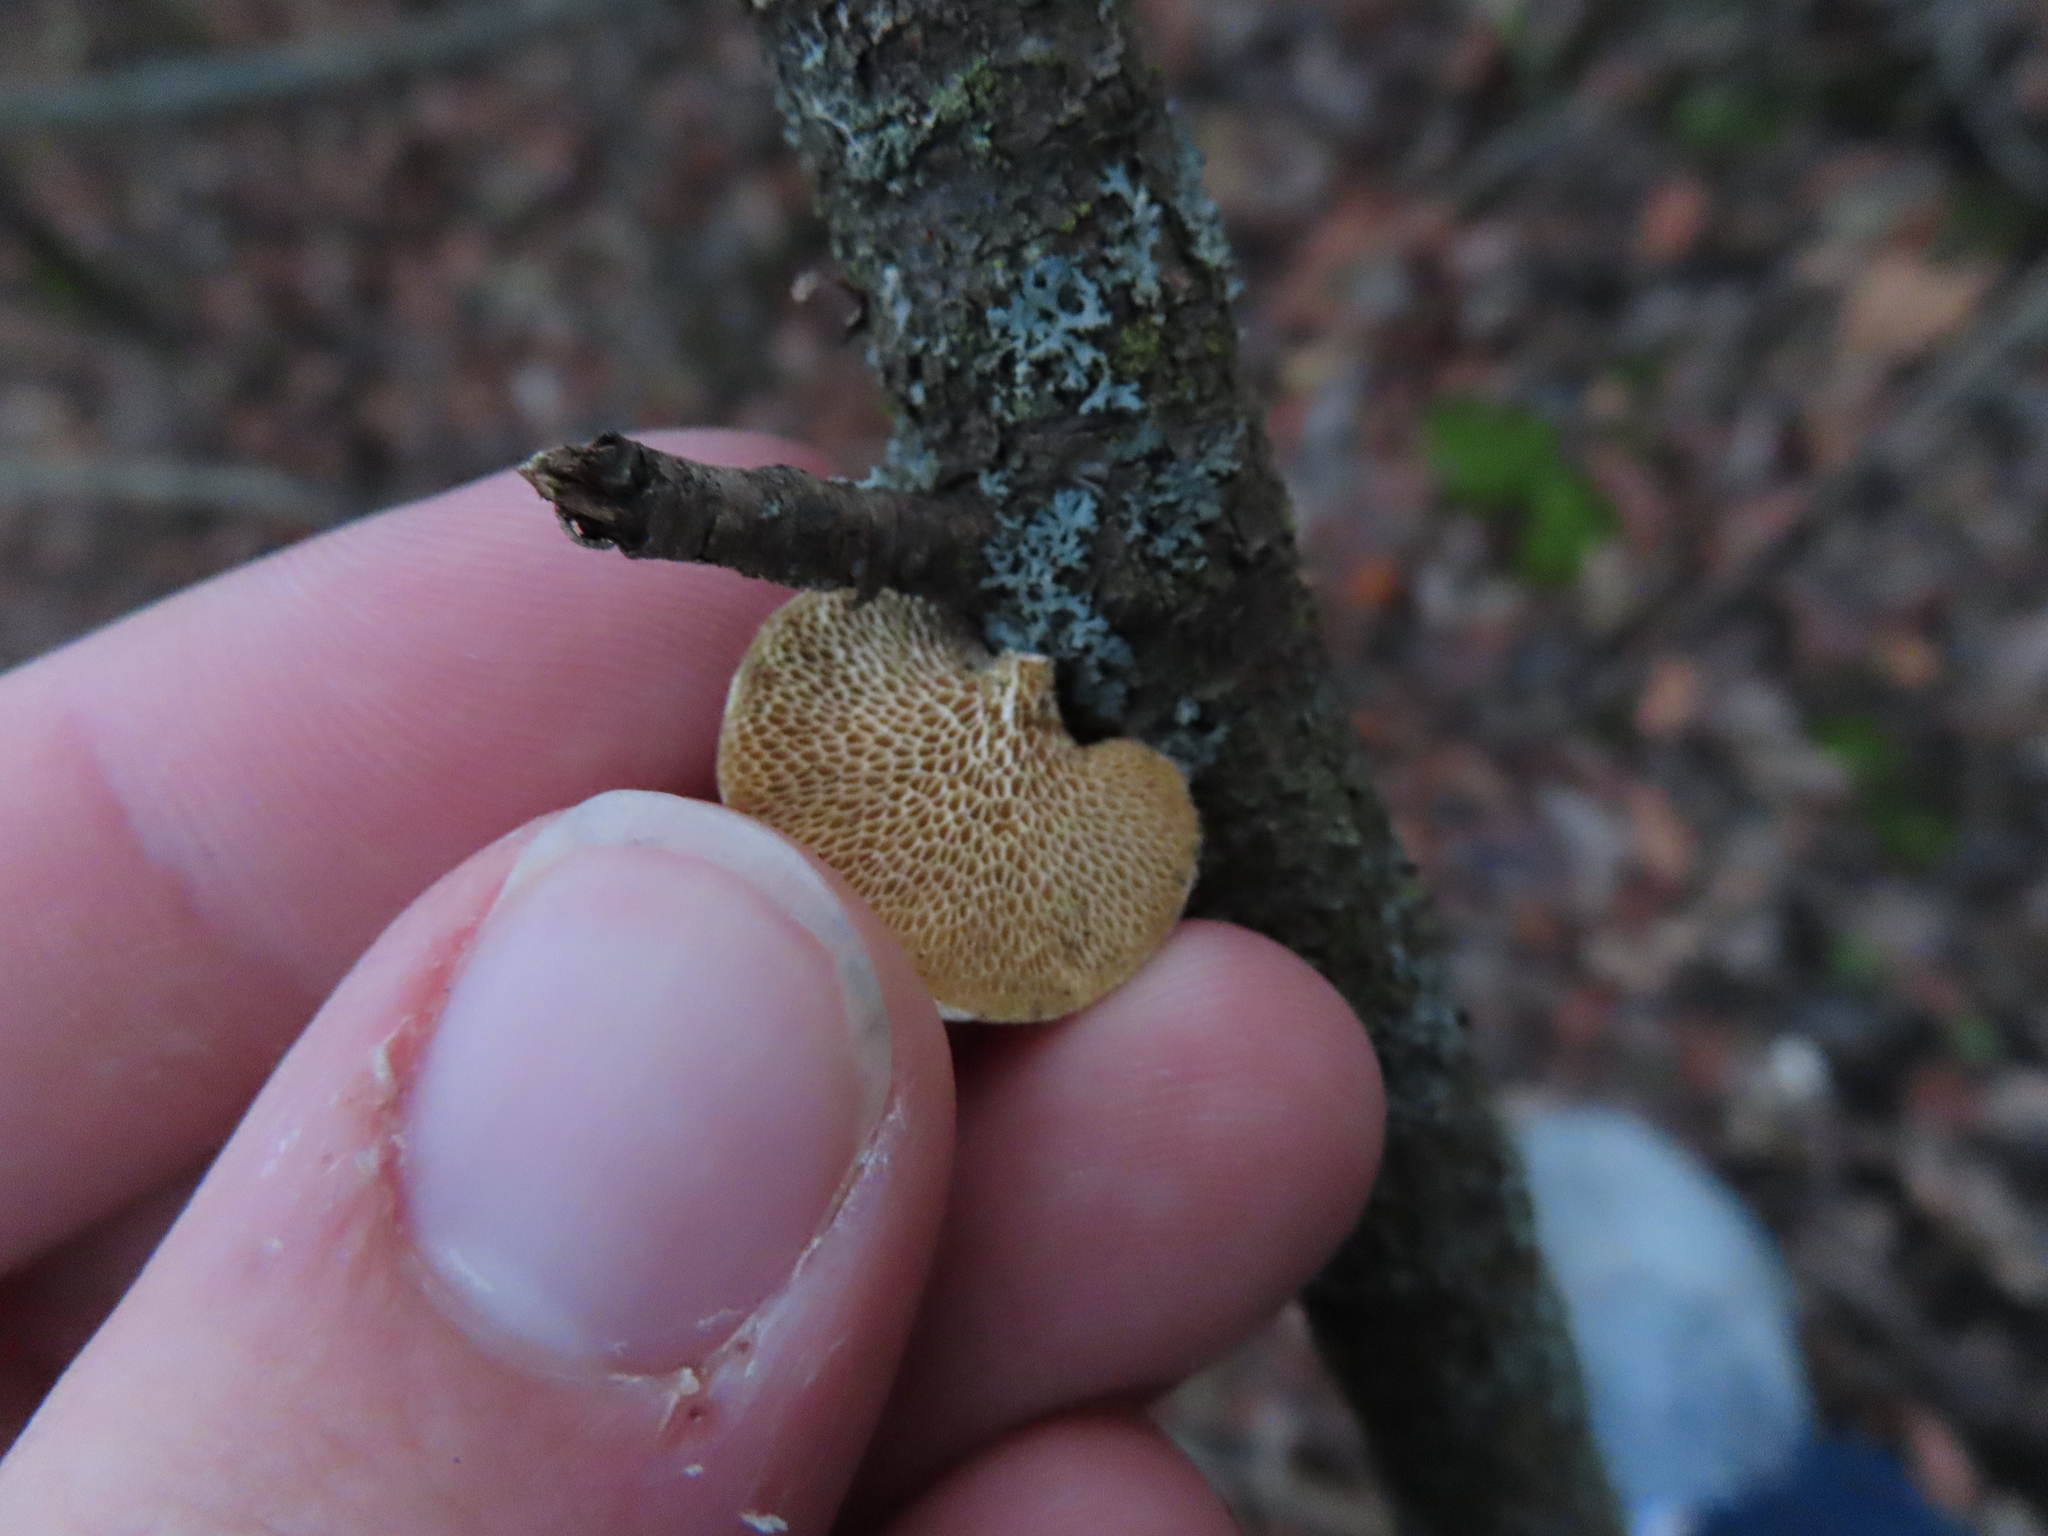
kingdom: Fungi
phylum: Basidiomycota
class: Agaricomycetes
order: Polyporales
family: Polyporaceae
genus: Neofavolus
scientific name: Neofavolus alveolaris
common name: Hexagonal-pored polypore
